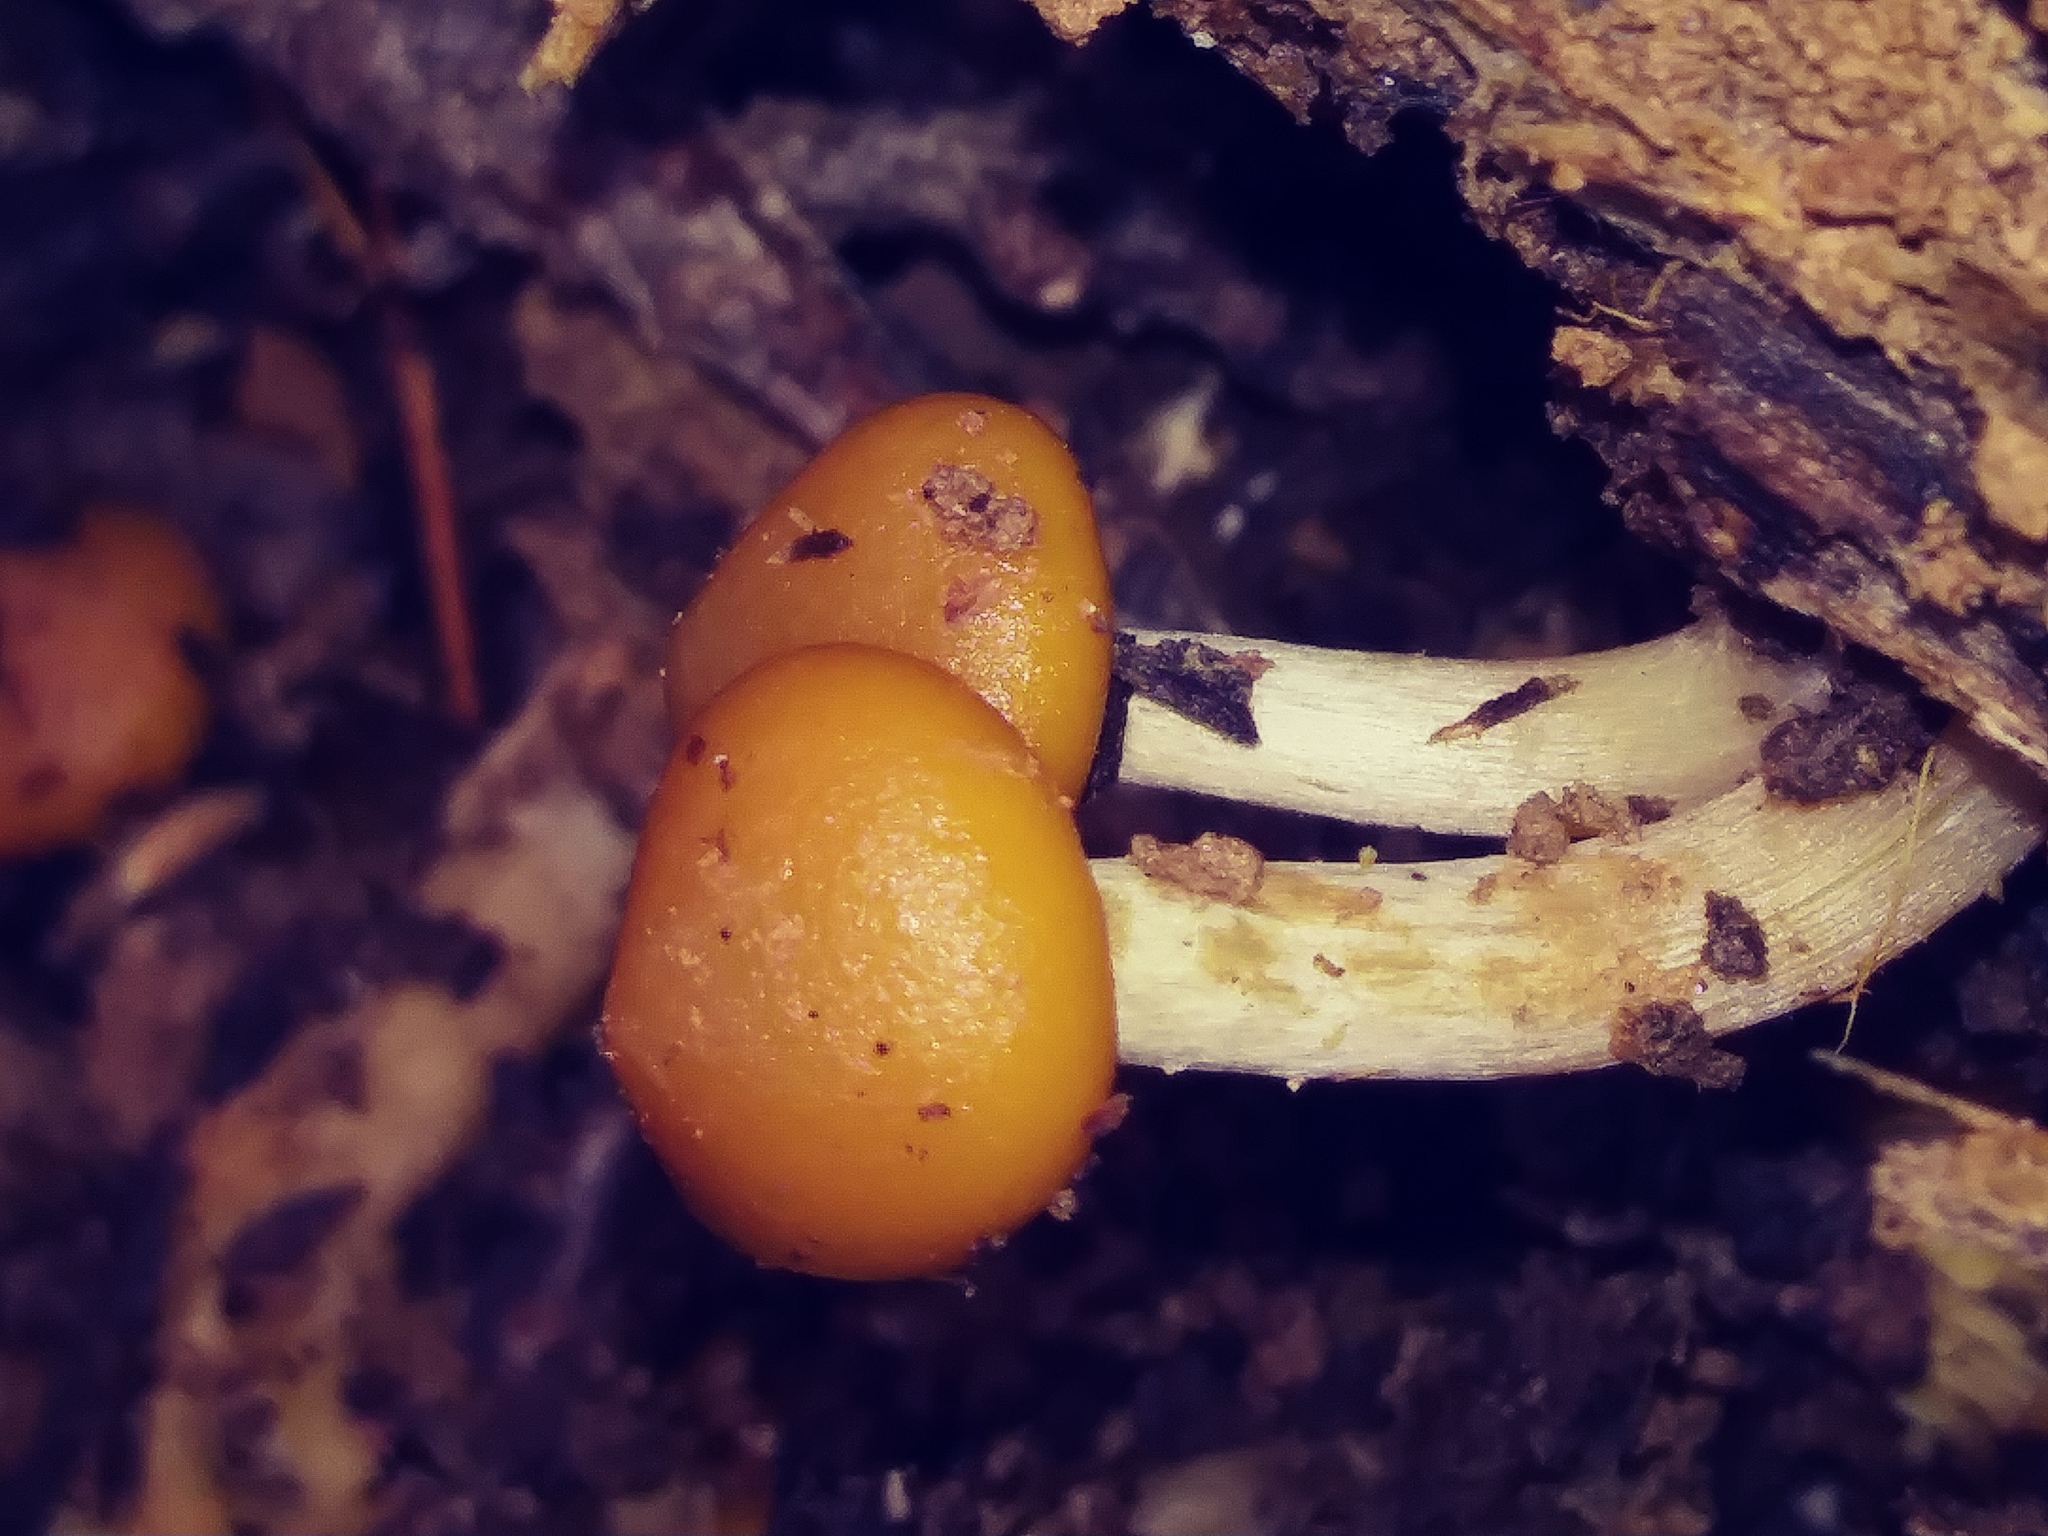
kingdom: Fungi
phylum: Basidiomycota
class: Agaricomycetes
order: Agaricales
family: Hymenogastraceae
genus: Galerina
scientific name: Galerina marginata
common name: Funeral bell
